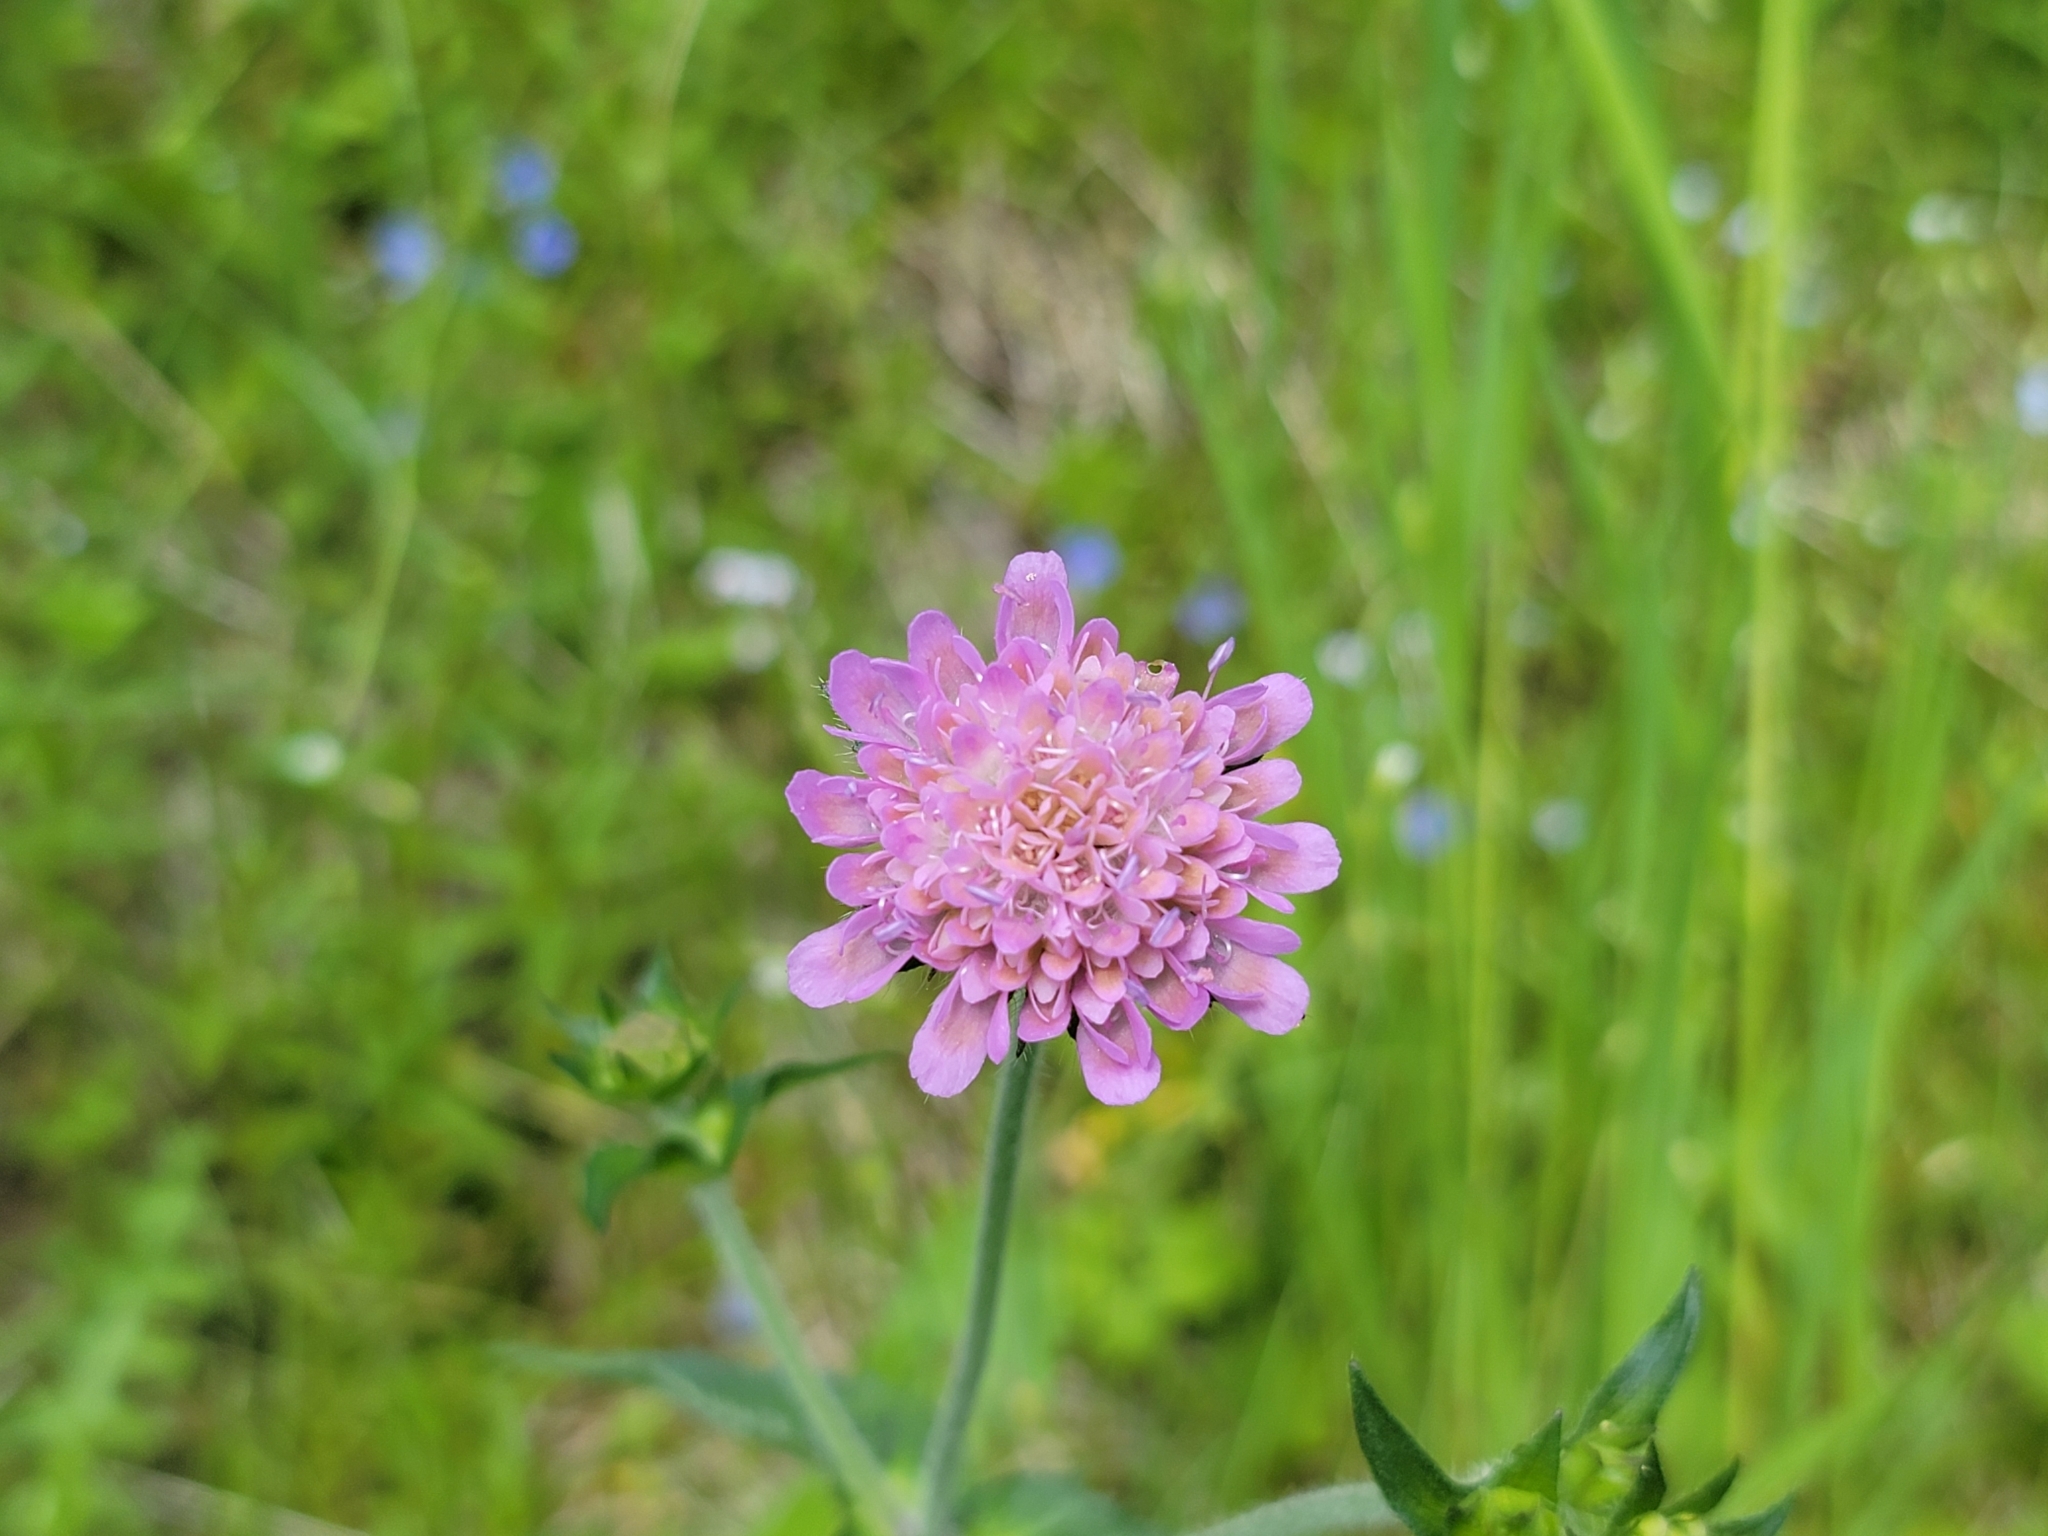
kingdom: Plantae
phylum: Tracheophyta
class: Magnoliopsida
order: Dipsacales
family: Caprifoliaceae
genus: Knautia
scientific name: Knautia dipsacifolia
